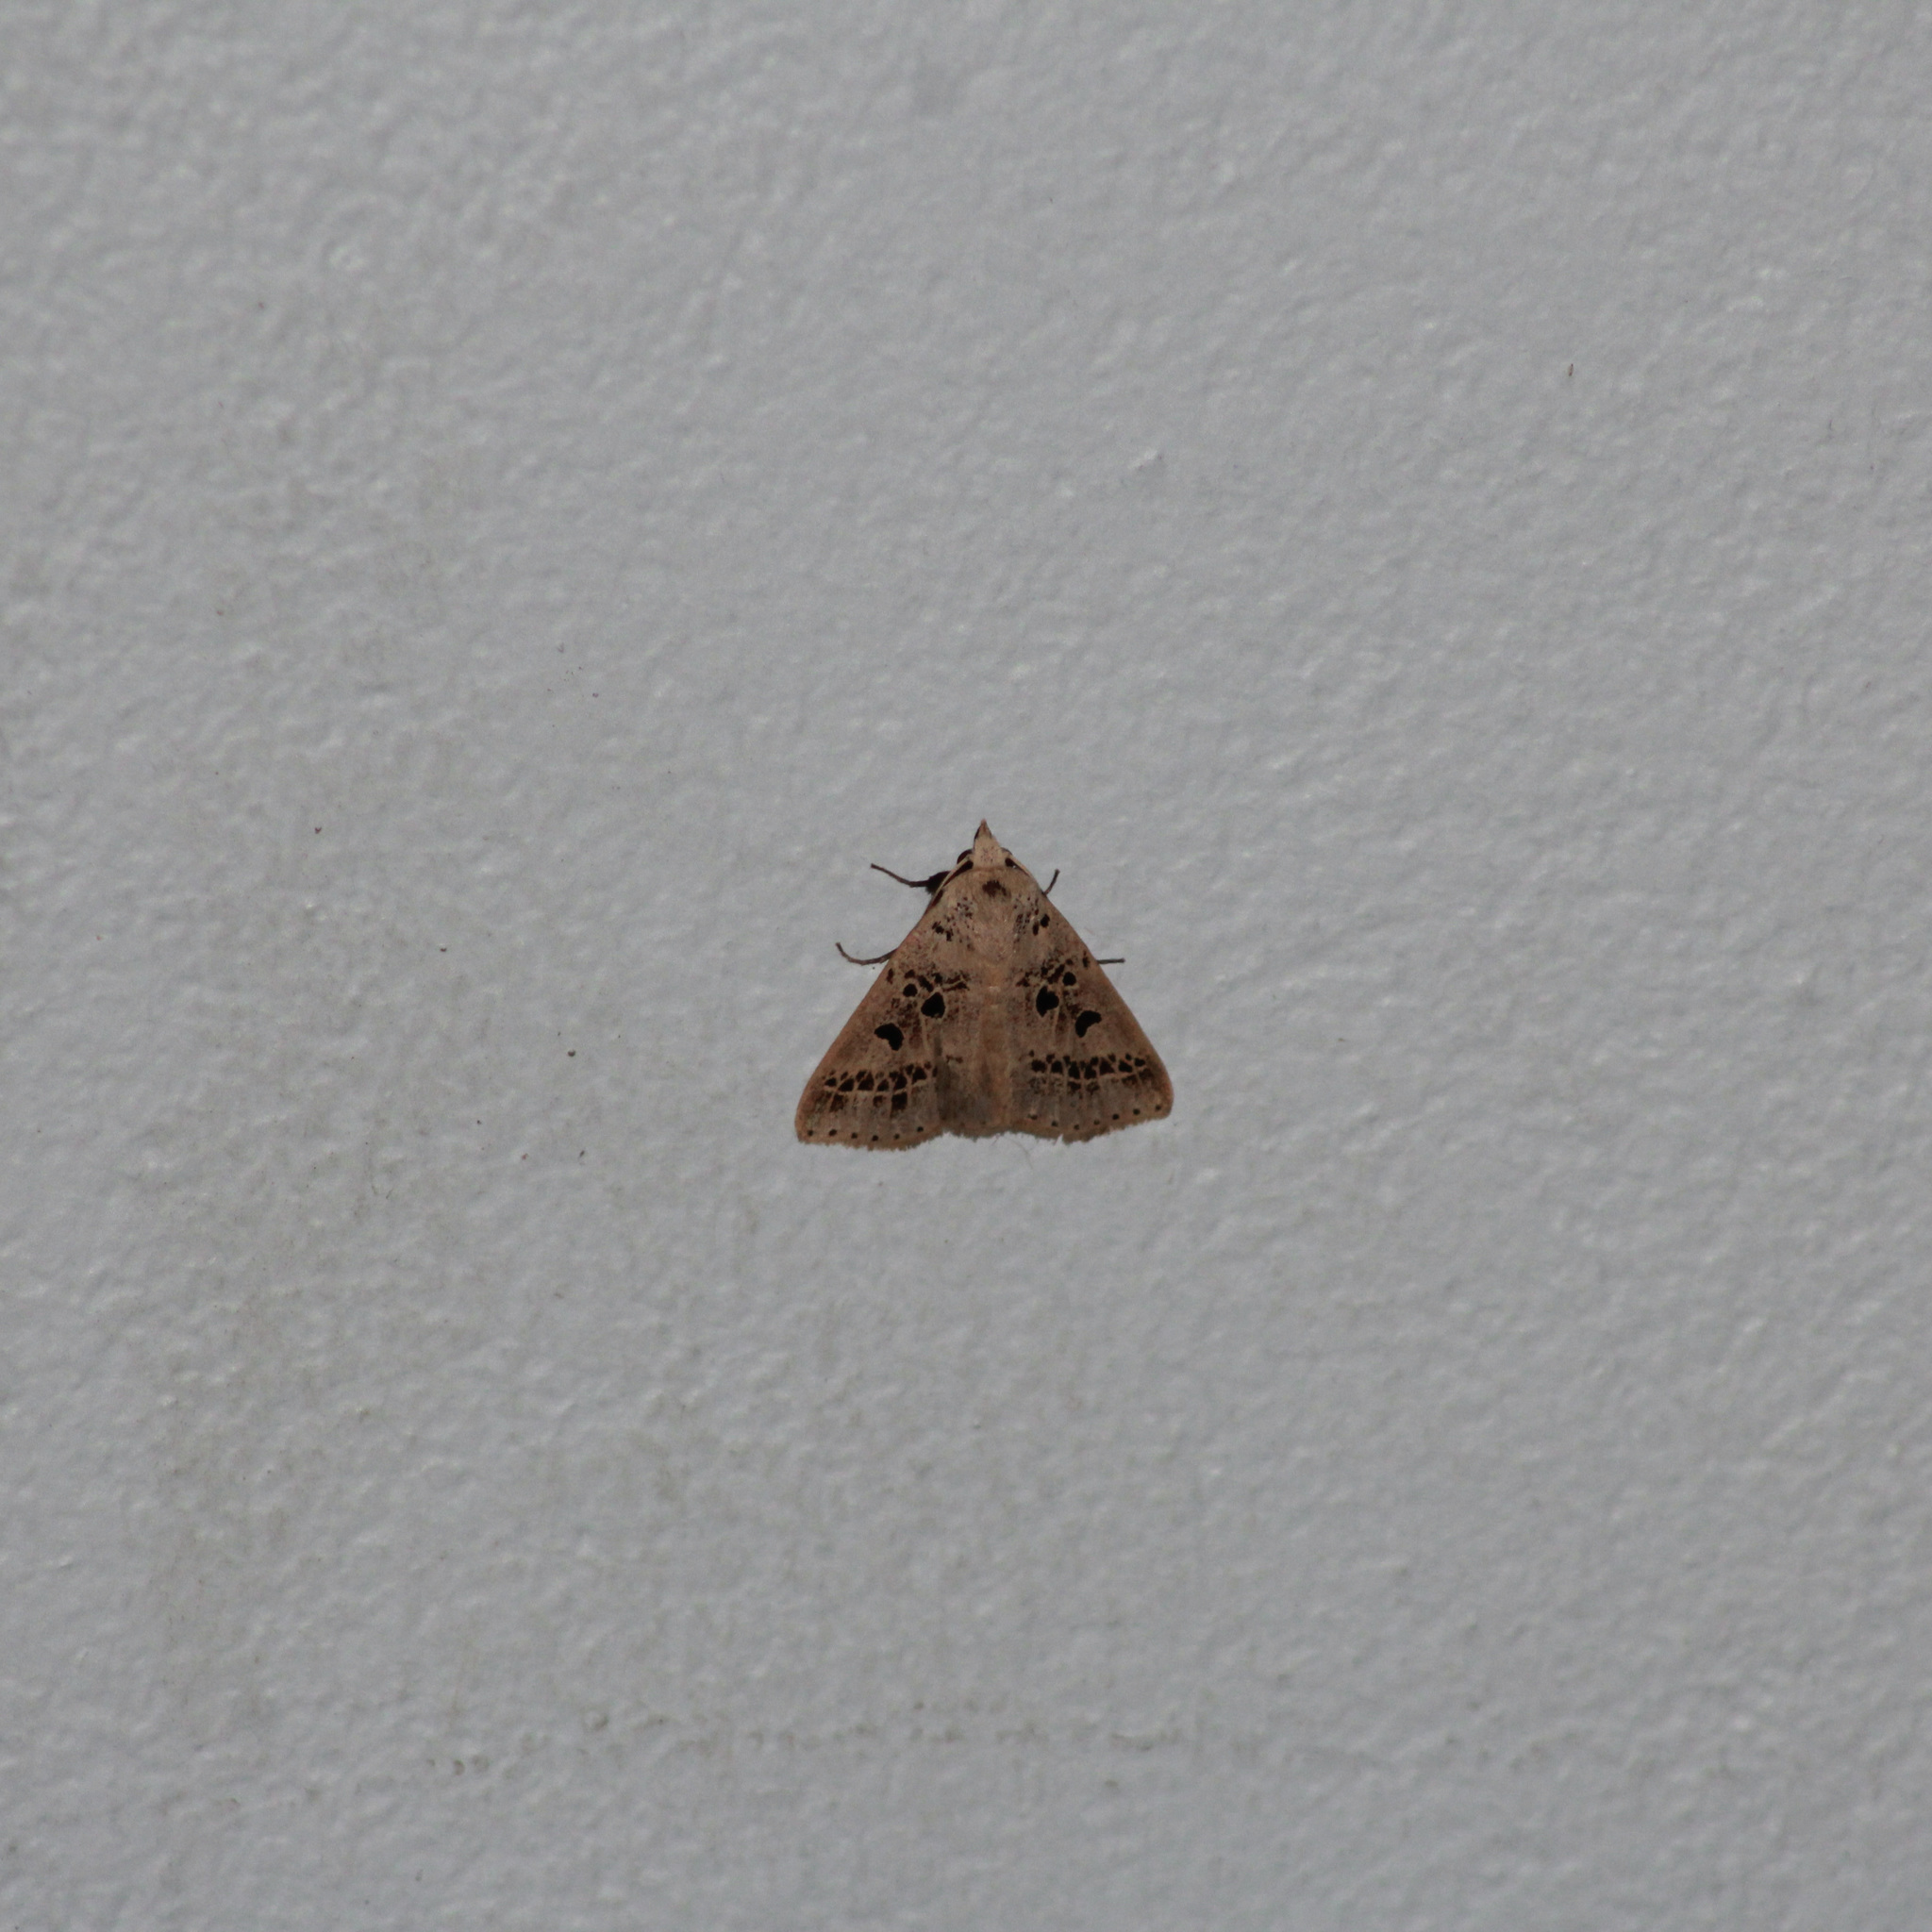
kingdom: Animalia
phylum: Arthropoda
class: Insecta
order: Lepidoptera
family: Erebidae
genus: Scolecocampa
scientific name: Scolecocampa Herminodes atrosignata
